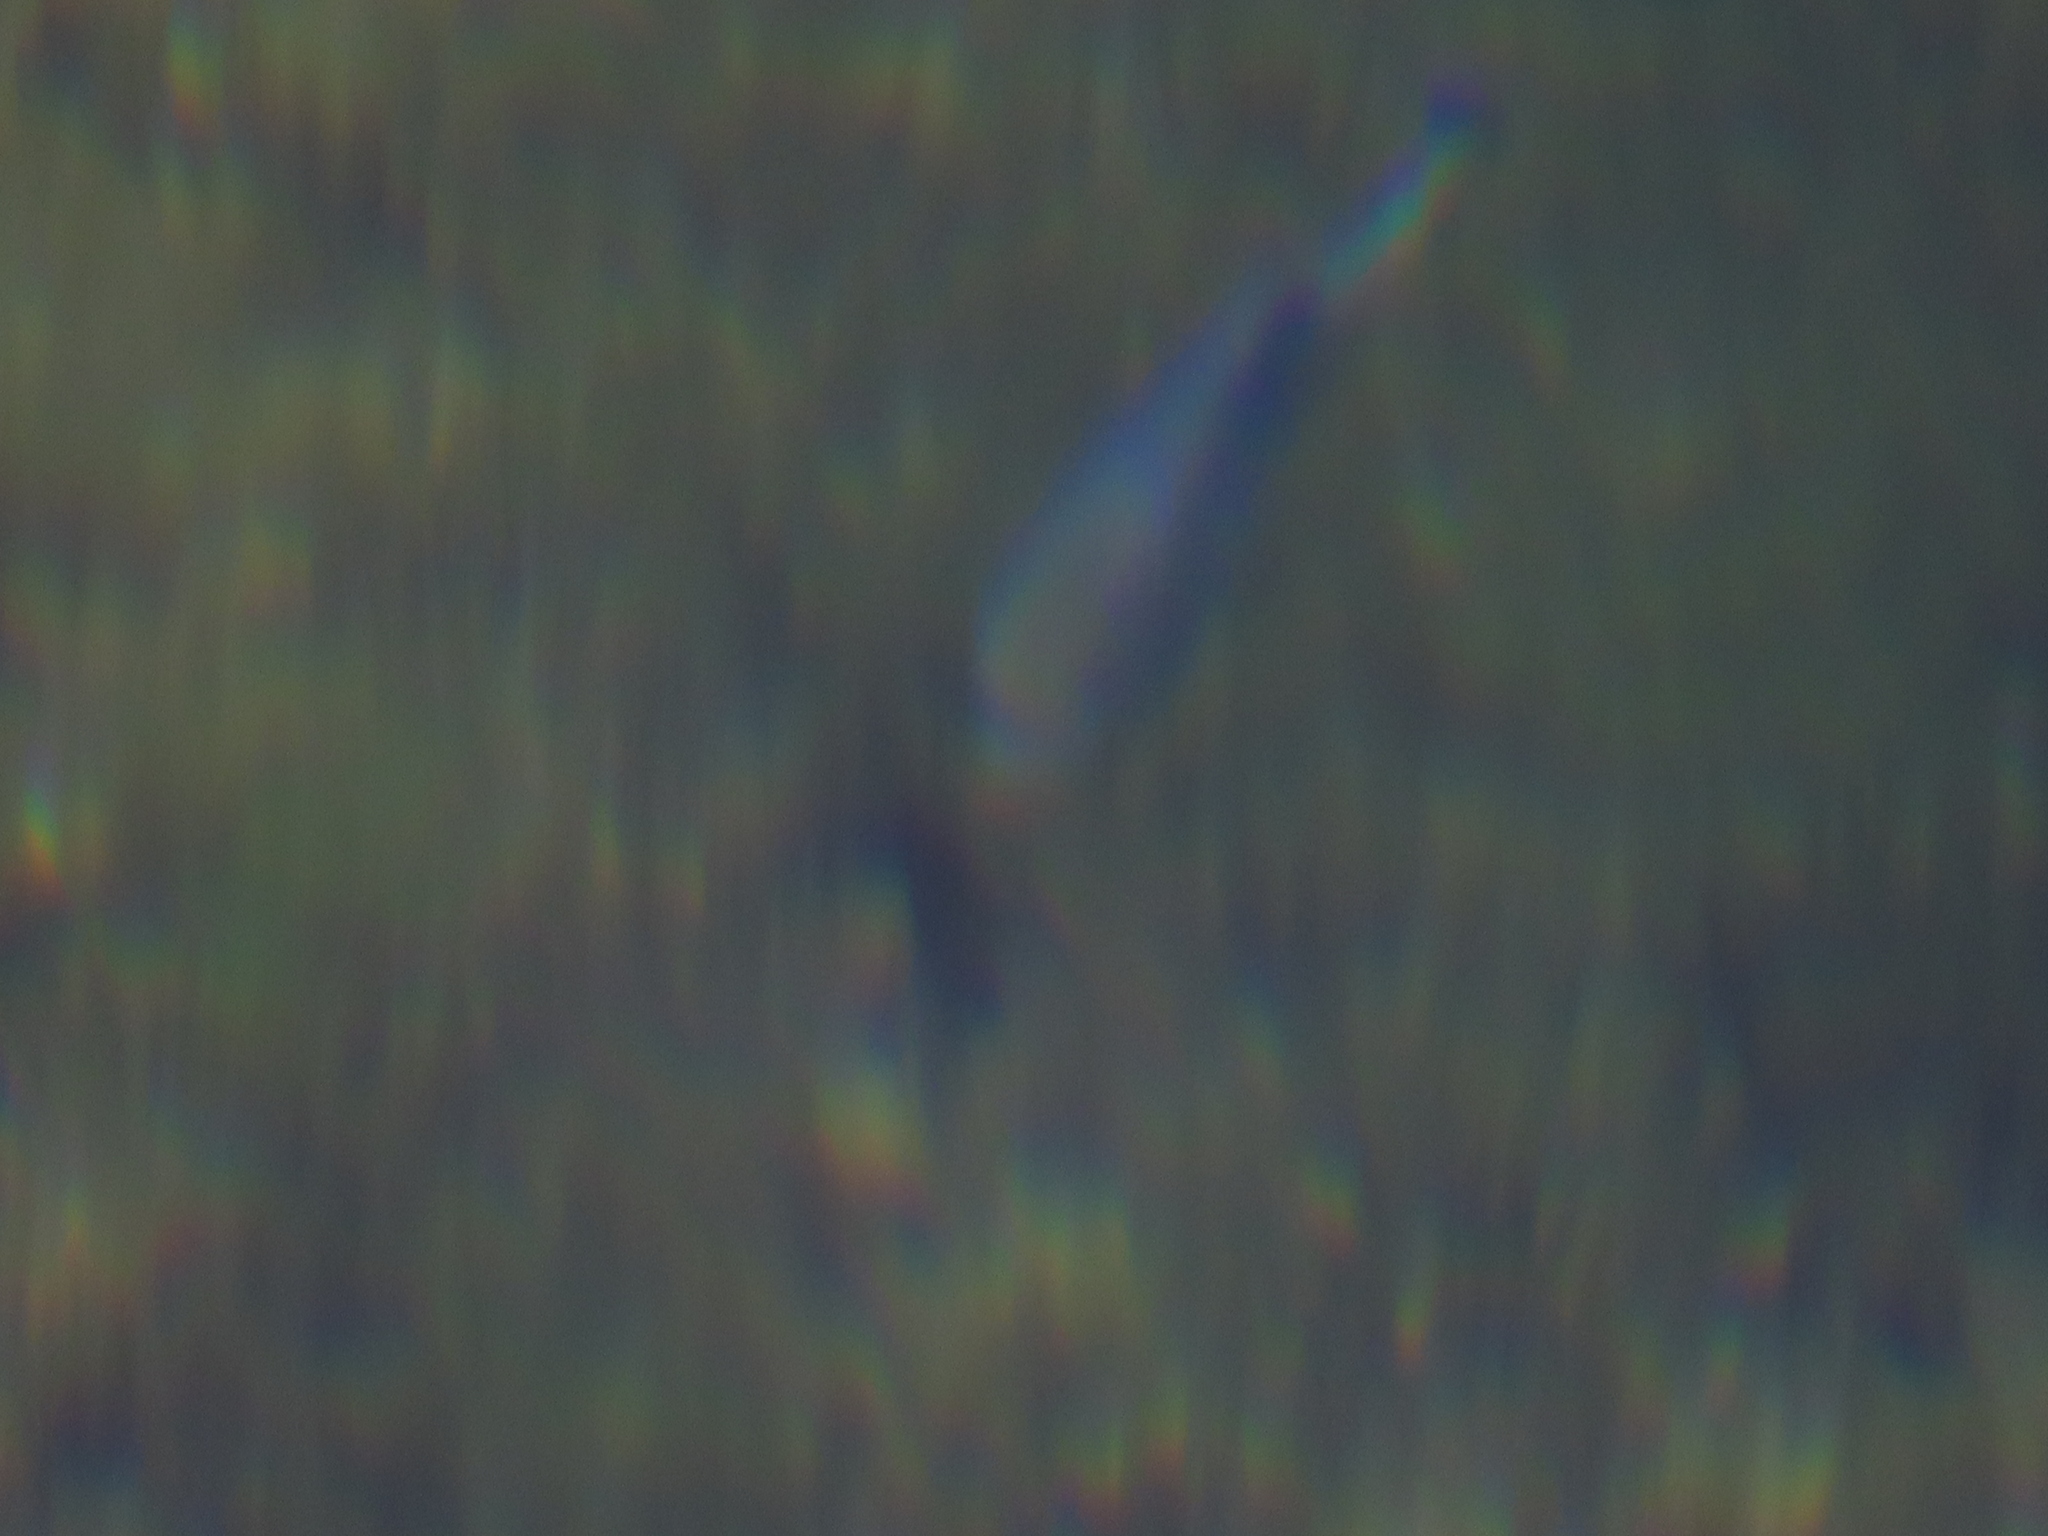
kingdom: Animalia
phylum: Chordata
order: Cyprinodontiformes
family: Cyprinodontidae
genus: Cyprinodon
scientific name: Cyprinodon nevadensis
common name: Amargosa pupfish
